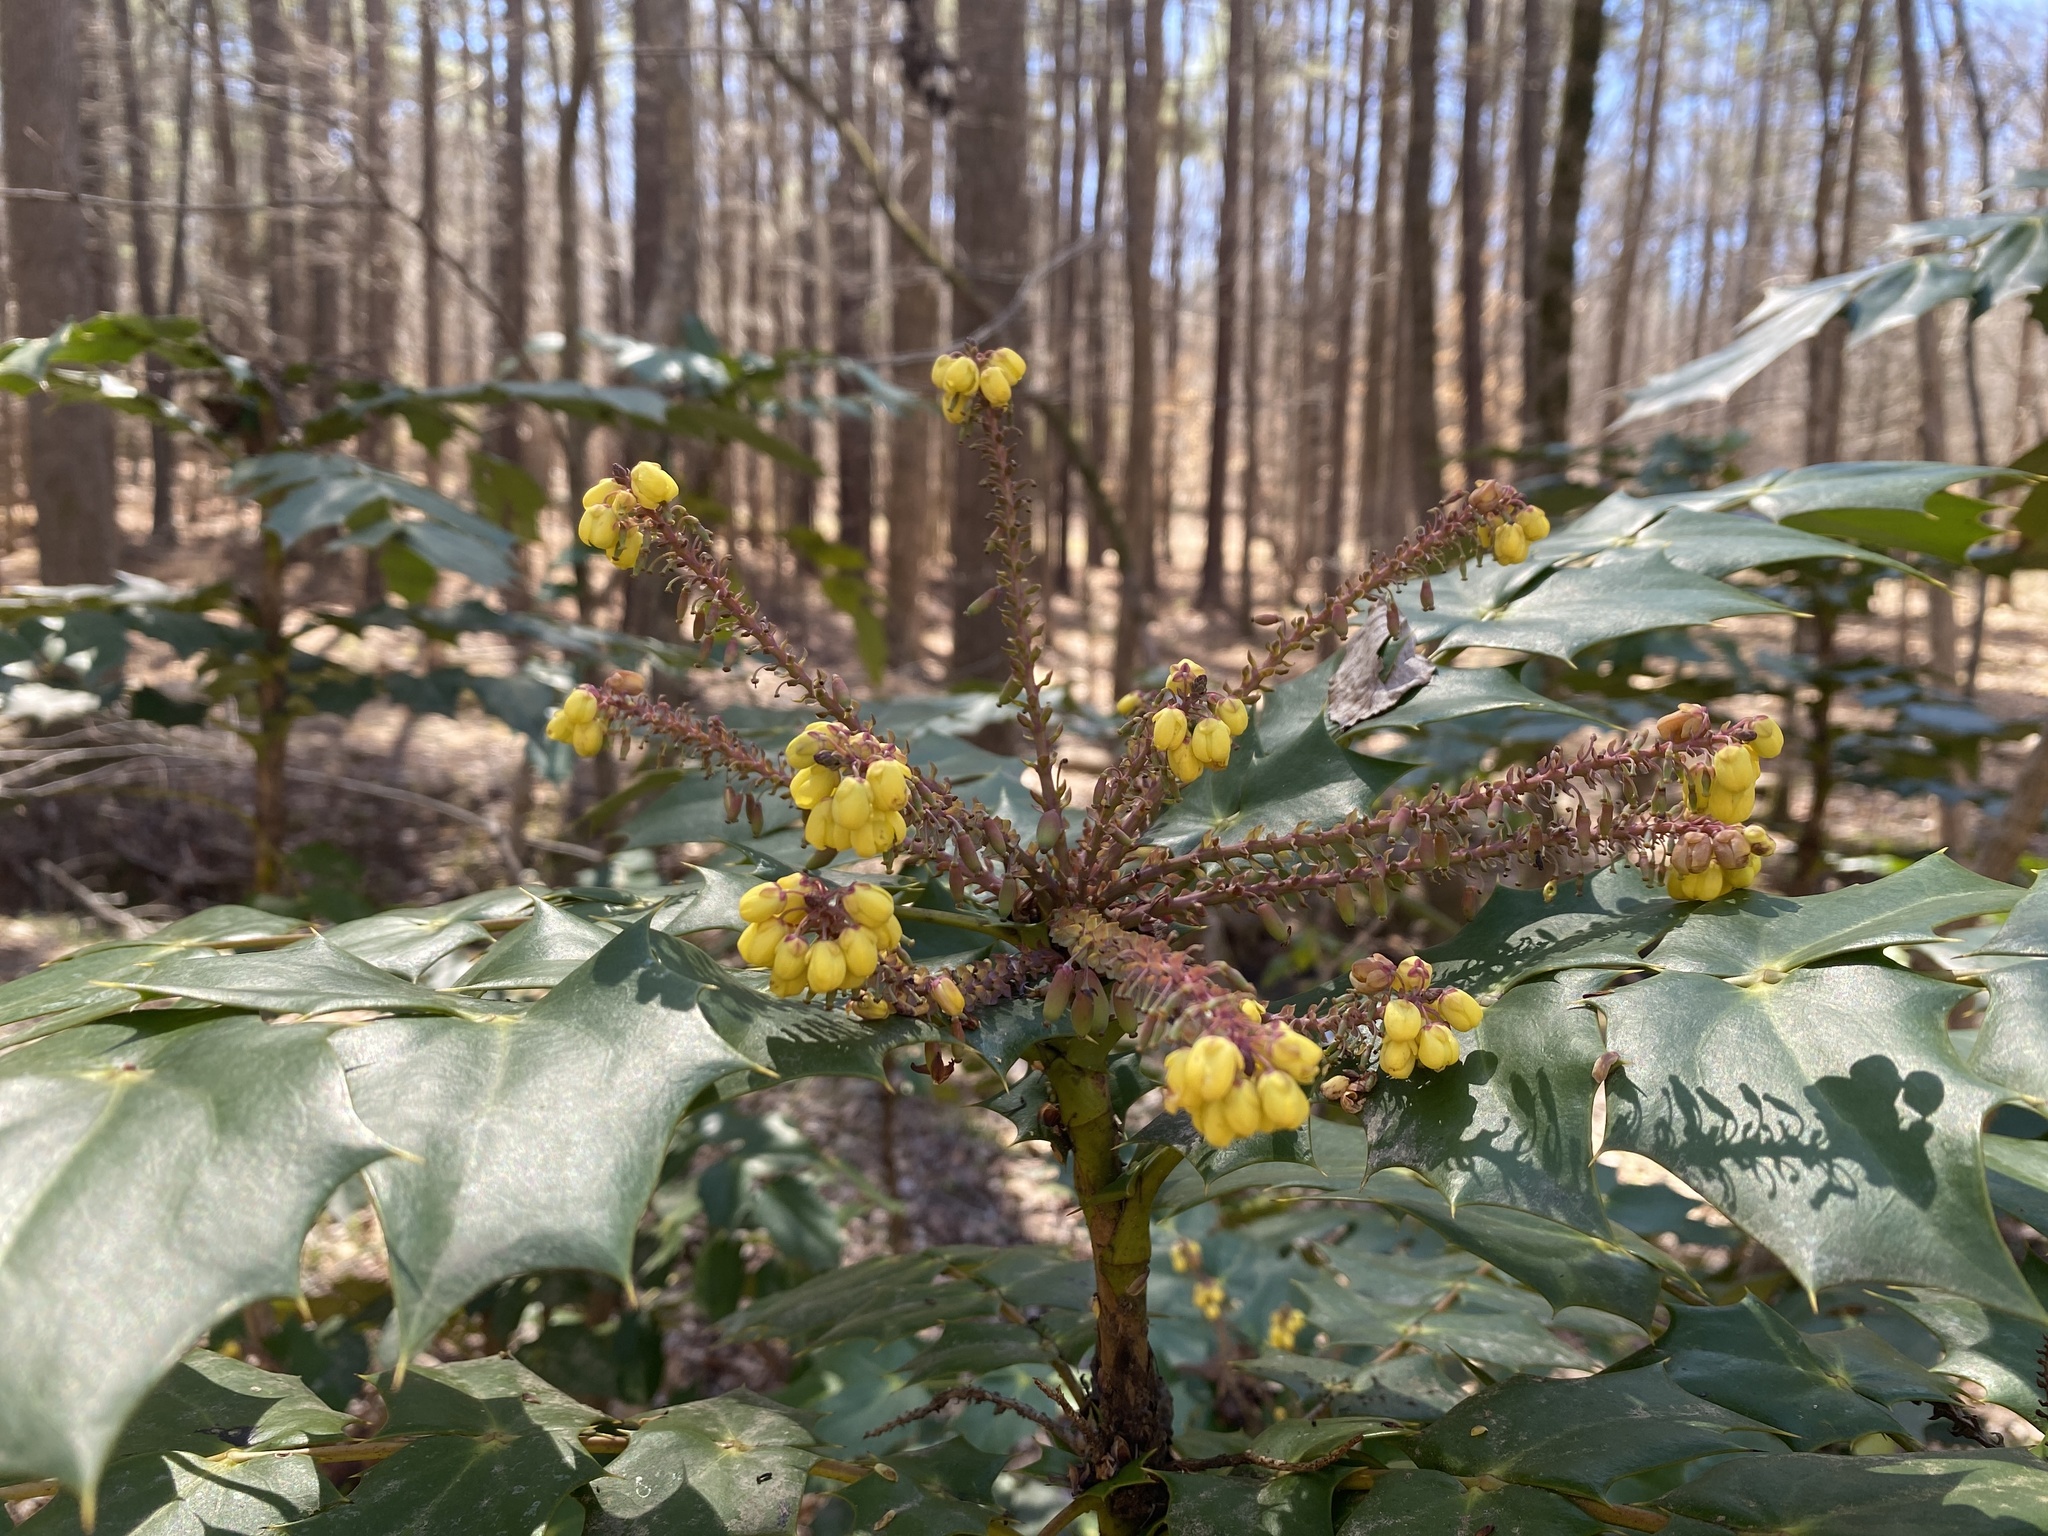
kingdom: Plantae
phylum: Tracheophyta
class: Magnoliopsida
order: Ranunculales
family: Berberidaceae
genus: Mahonia
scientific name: Mahonia bealei
